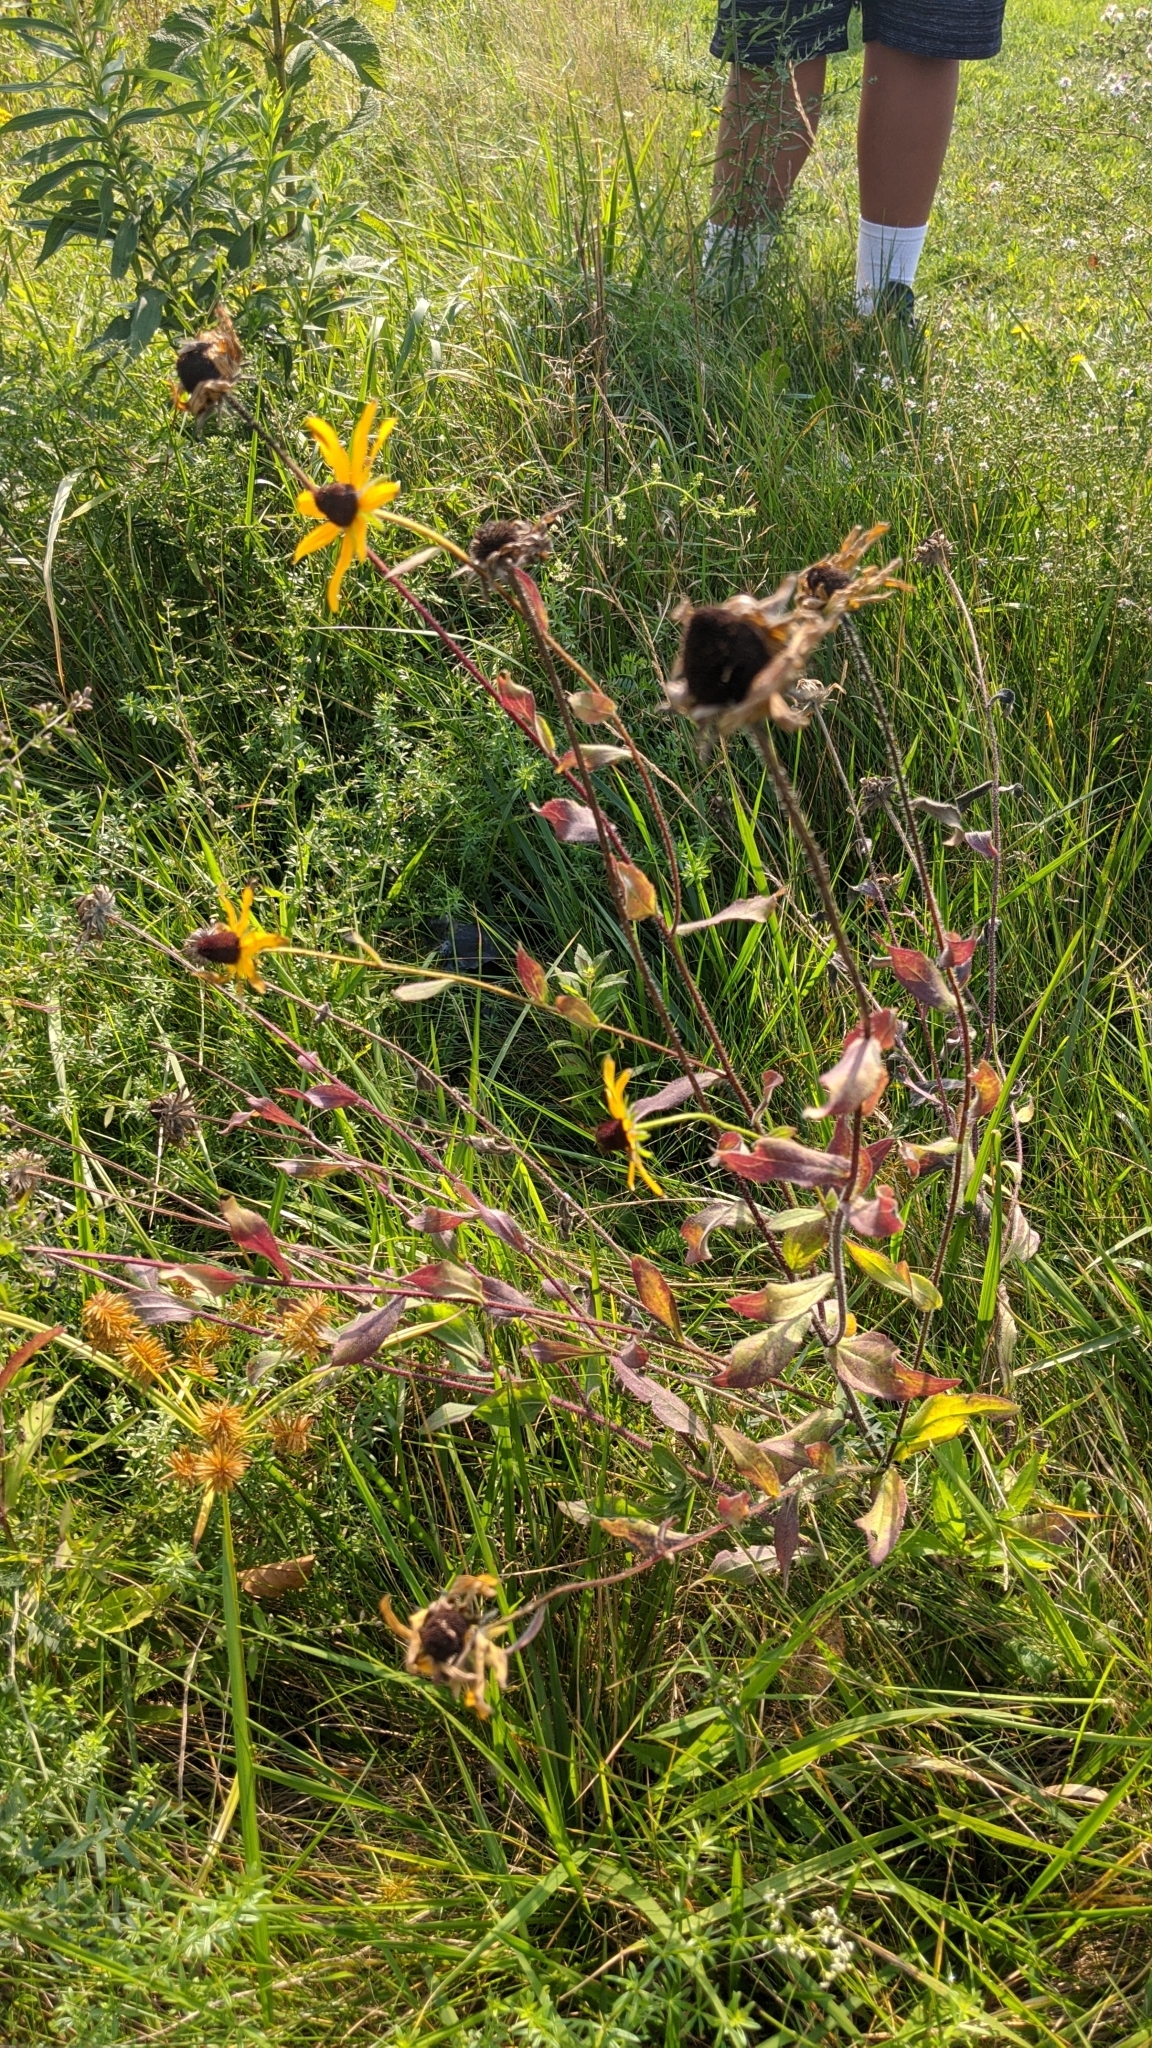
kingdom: Plantae
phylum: Tracheophyta
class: Magnoliopsida
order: Asterales
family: Asteraceae
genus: Rudbeckia
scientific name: Rudbeckia hirta
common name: Black-eyed-susan
